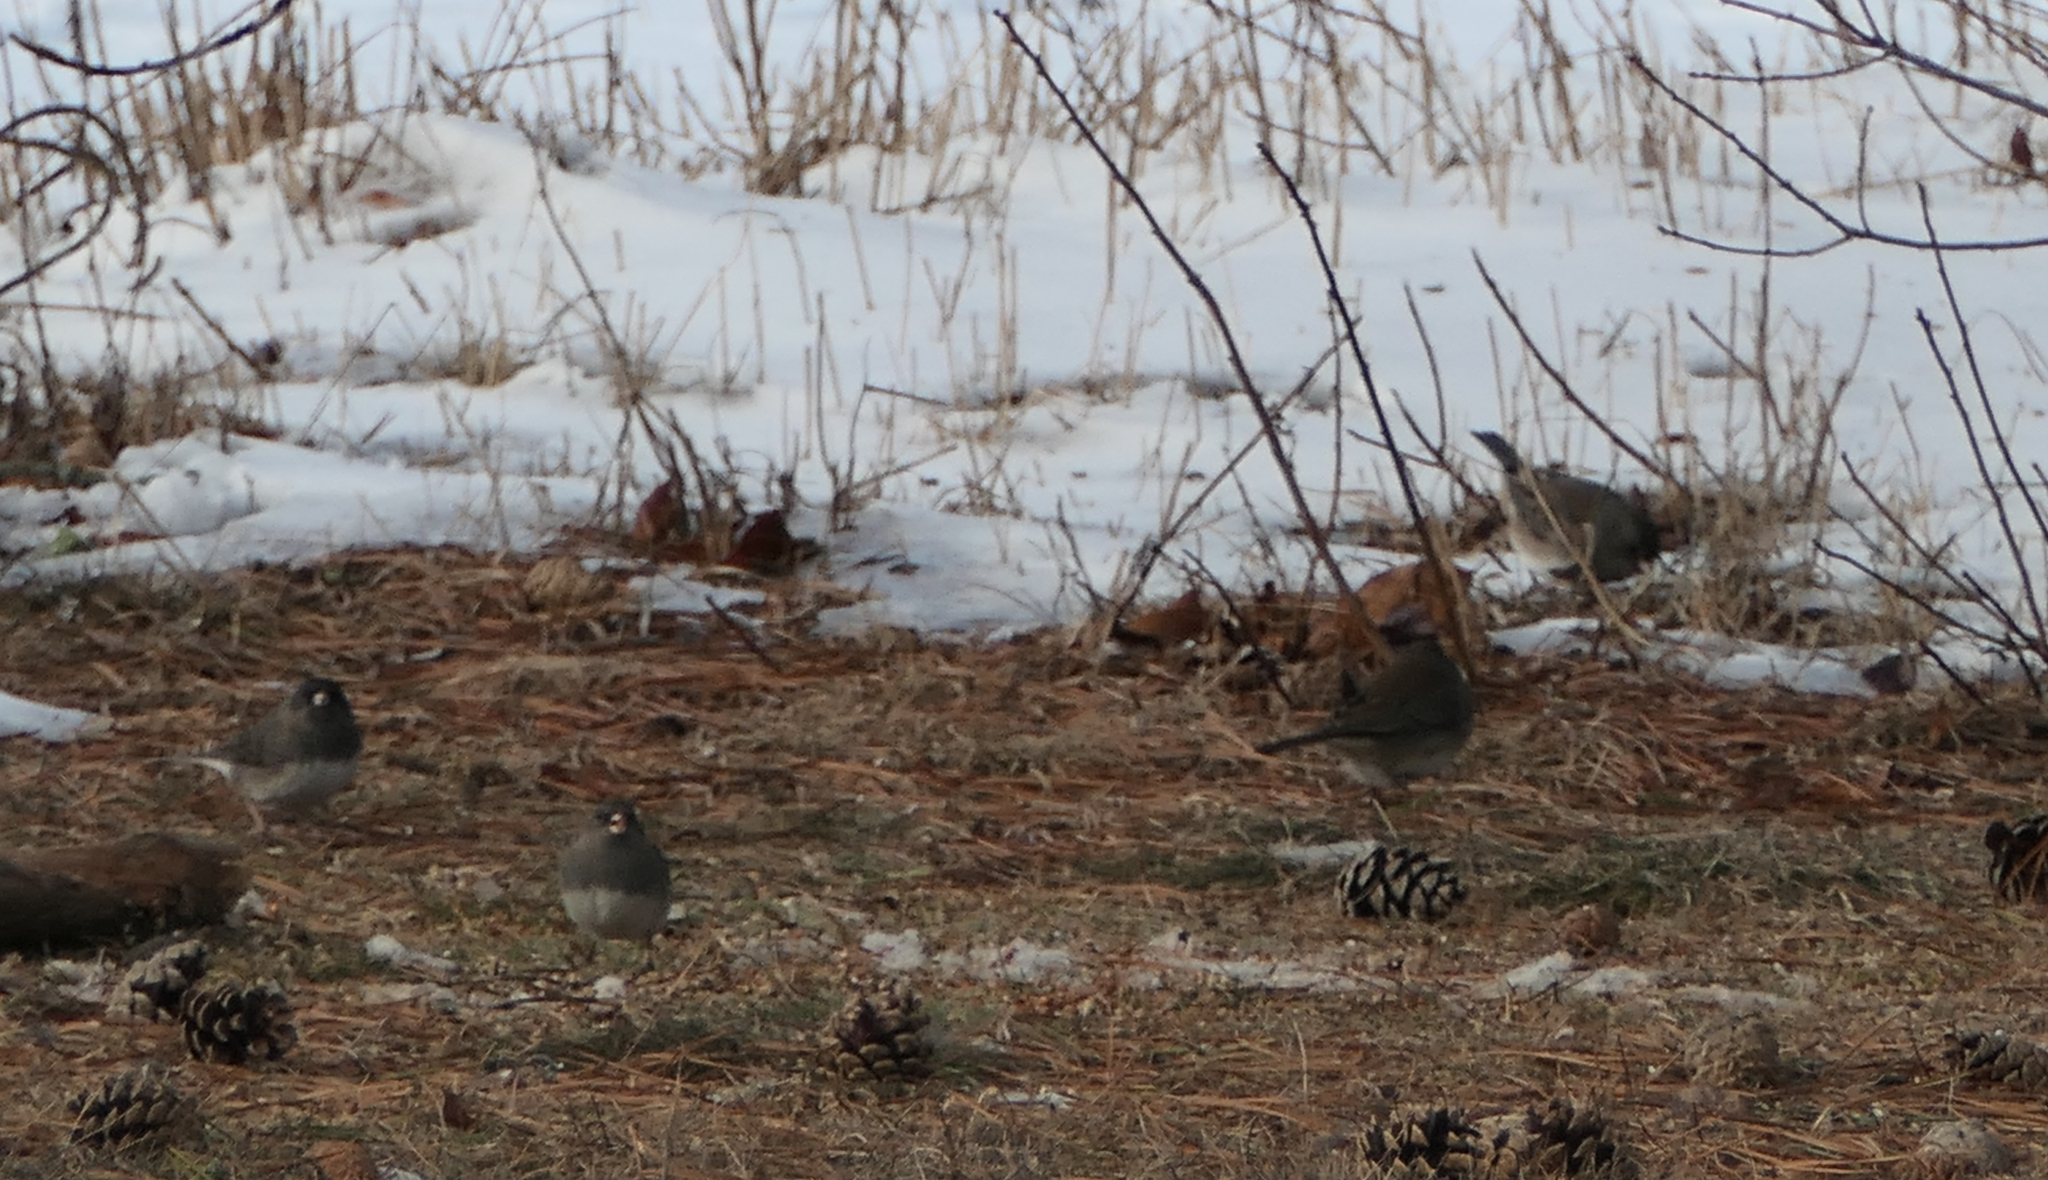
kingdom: Animalia
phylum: Chordata
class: Aves
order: Passeriformes
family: Passerellidae
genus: Junco
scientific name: Junco hyemalis
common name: Dark-eyed junco
